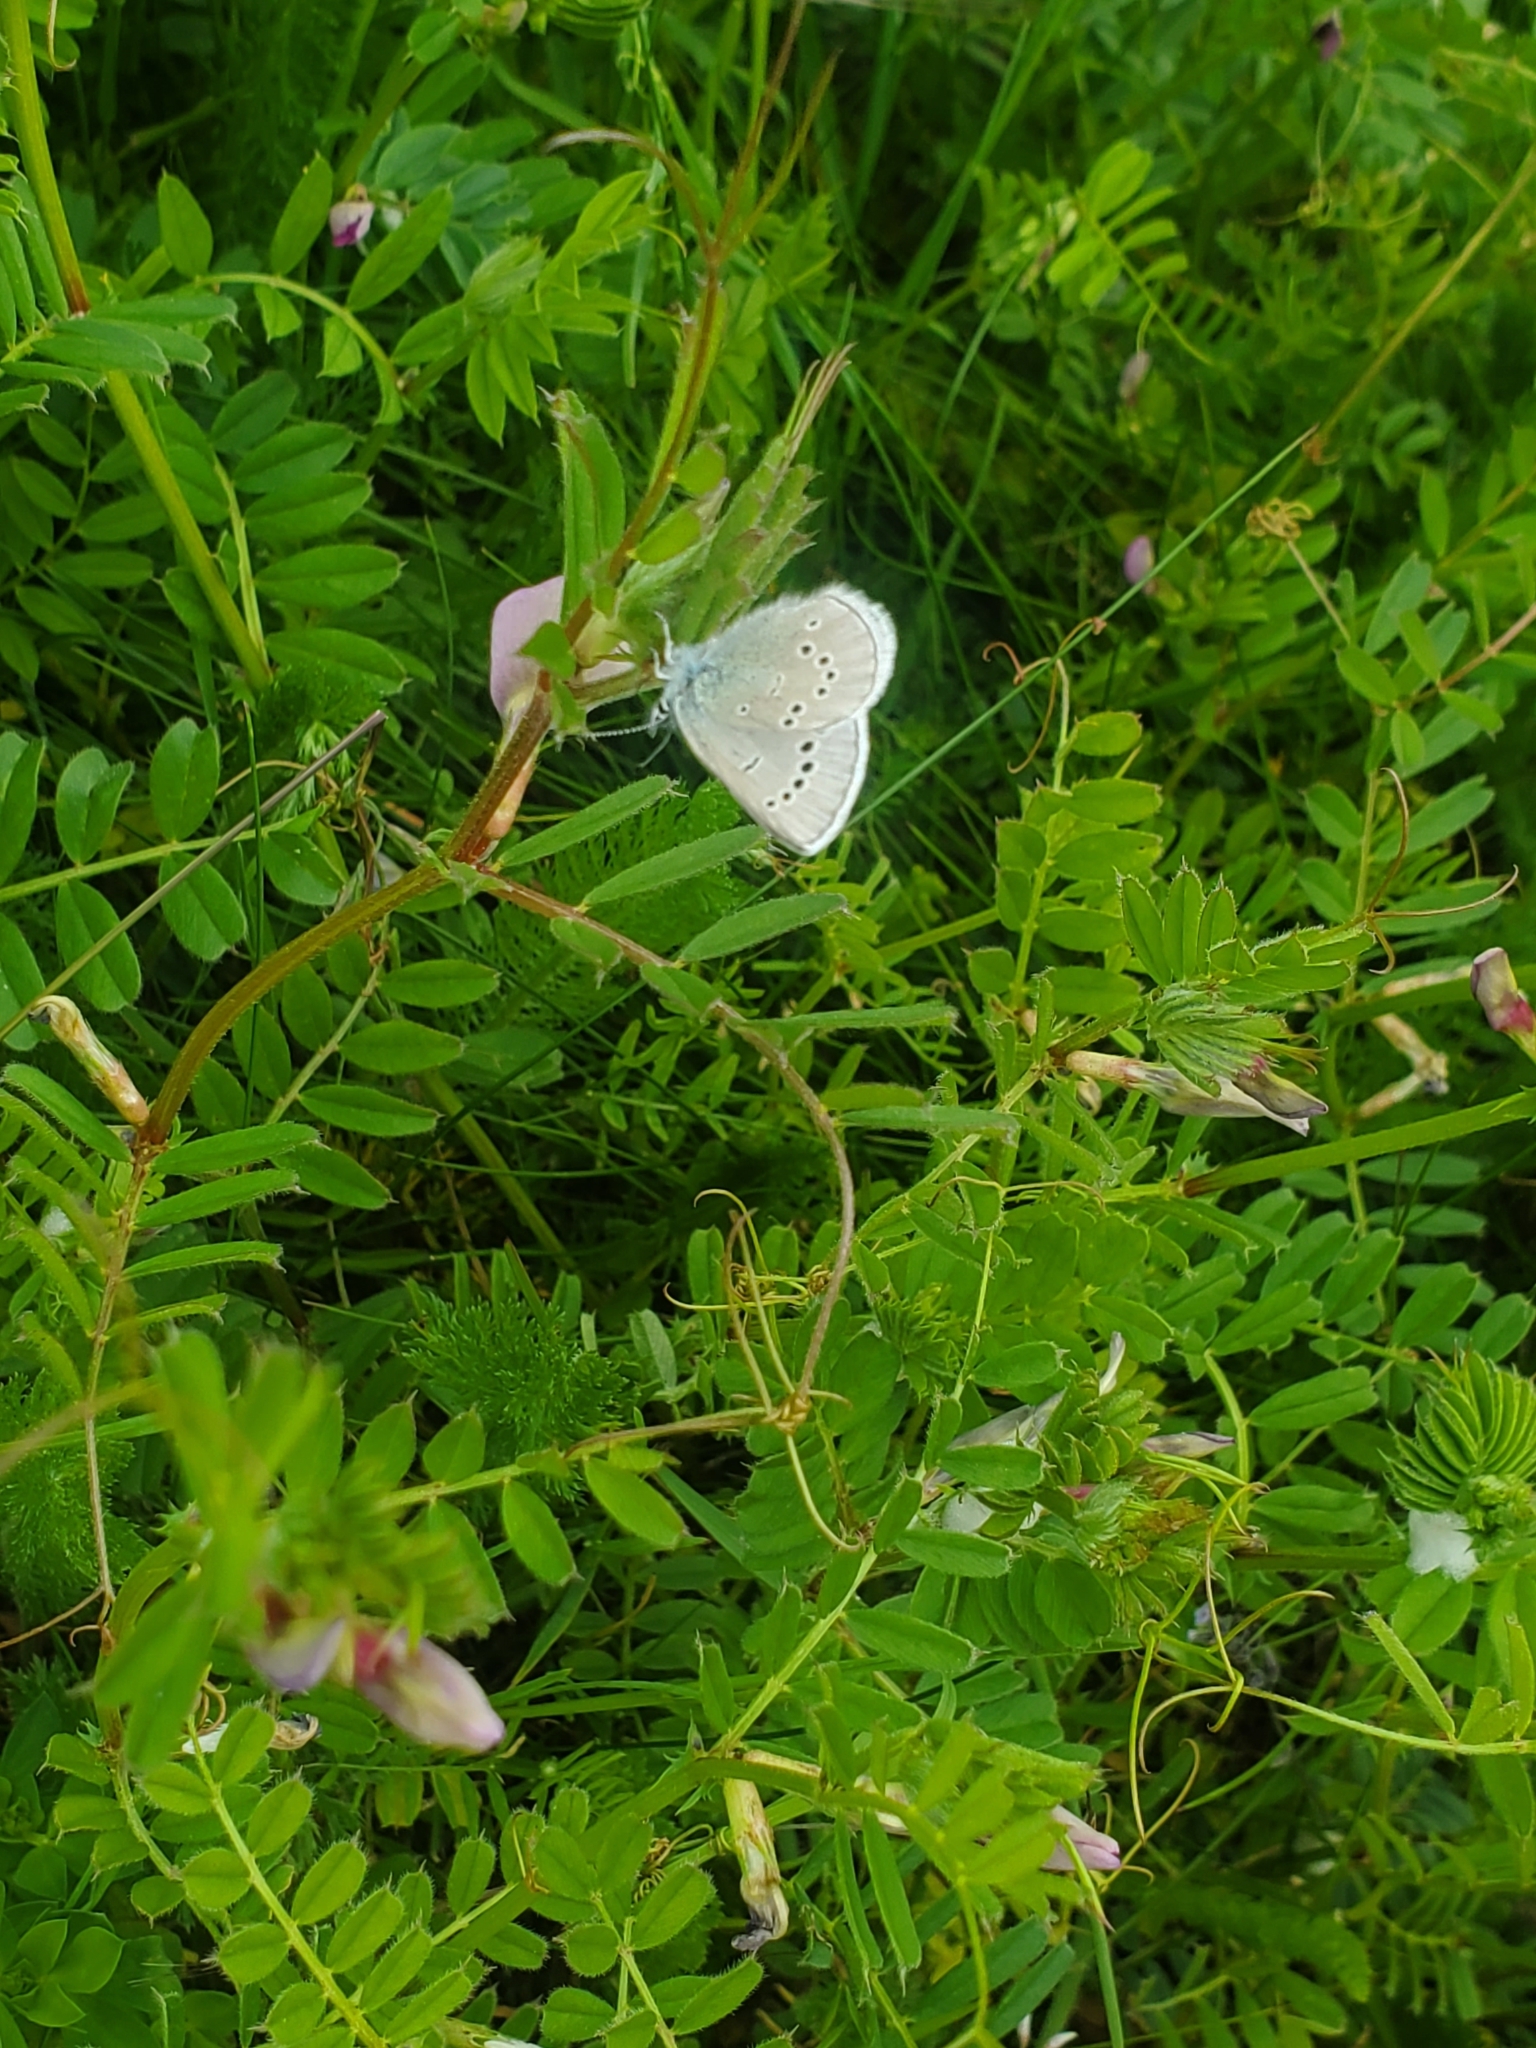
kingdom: Animalia
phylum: Arthropoda
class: Insecta
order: Lepidoptera
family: Lycaenidae
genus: Glaucopsyche
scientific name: Glaucopsyche lygdamus
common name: Silvery blue
